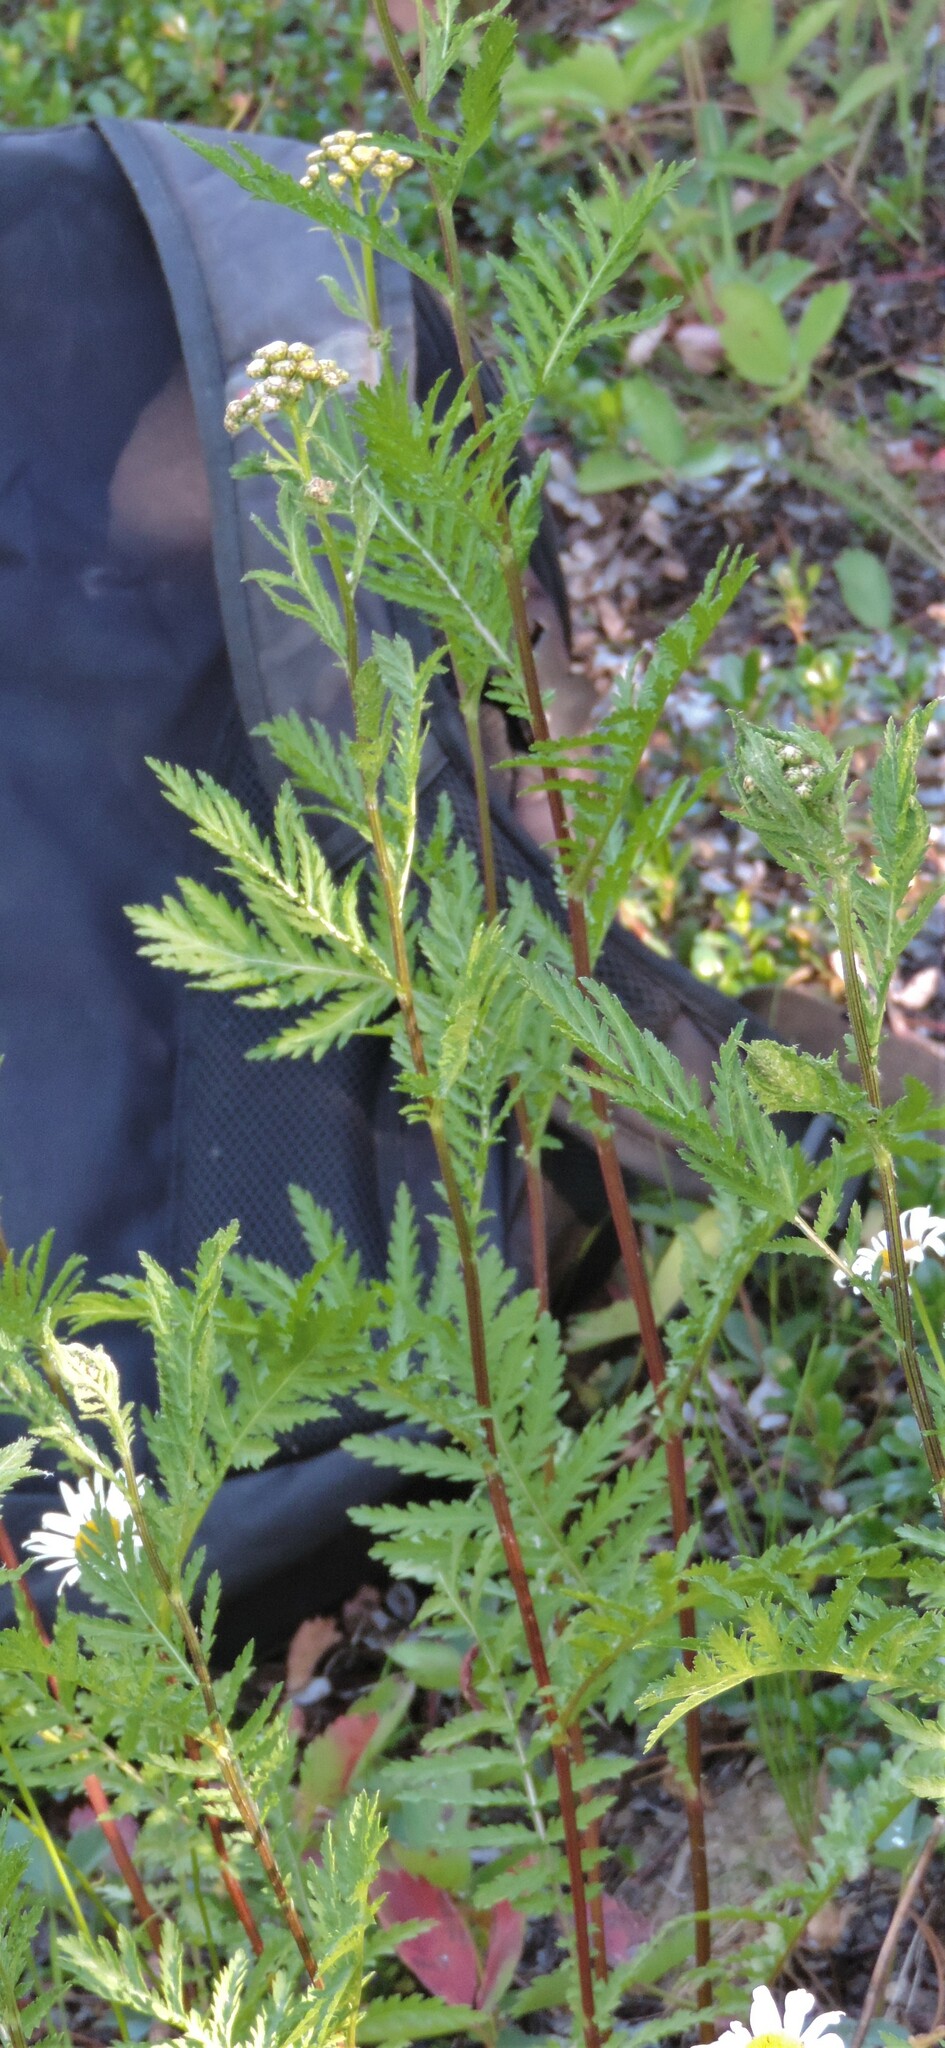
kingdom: Plantae
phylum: Tracheophyta
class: Magnoliopsida
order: Asterales
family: Asteraceae
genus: Tanacetum
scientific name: Tanacetum vulgare
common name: Common tansy
